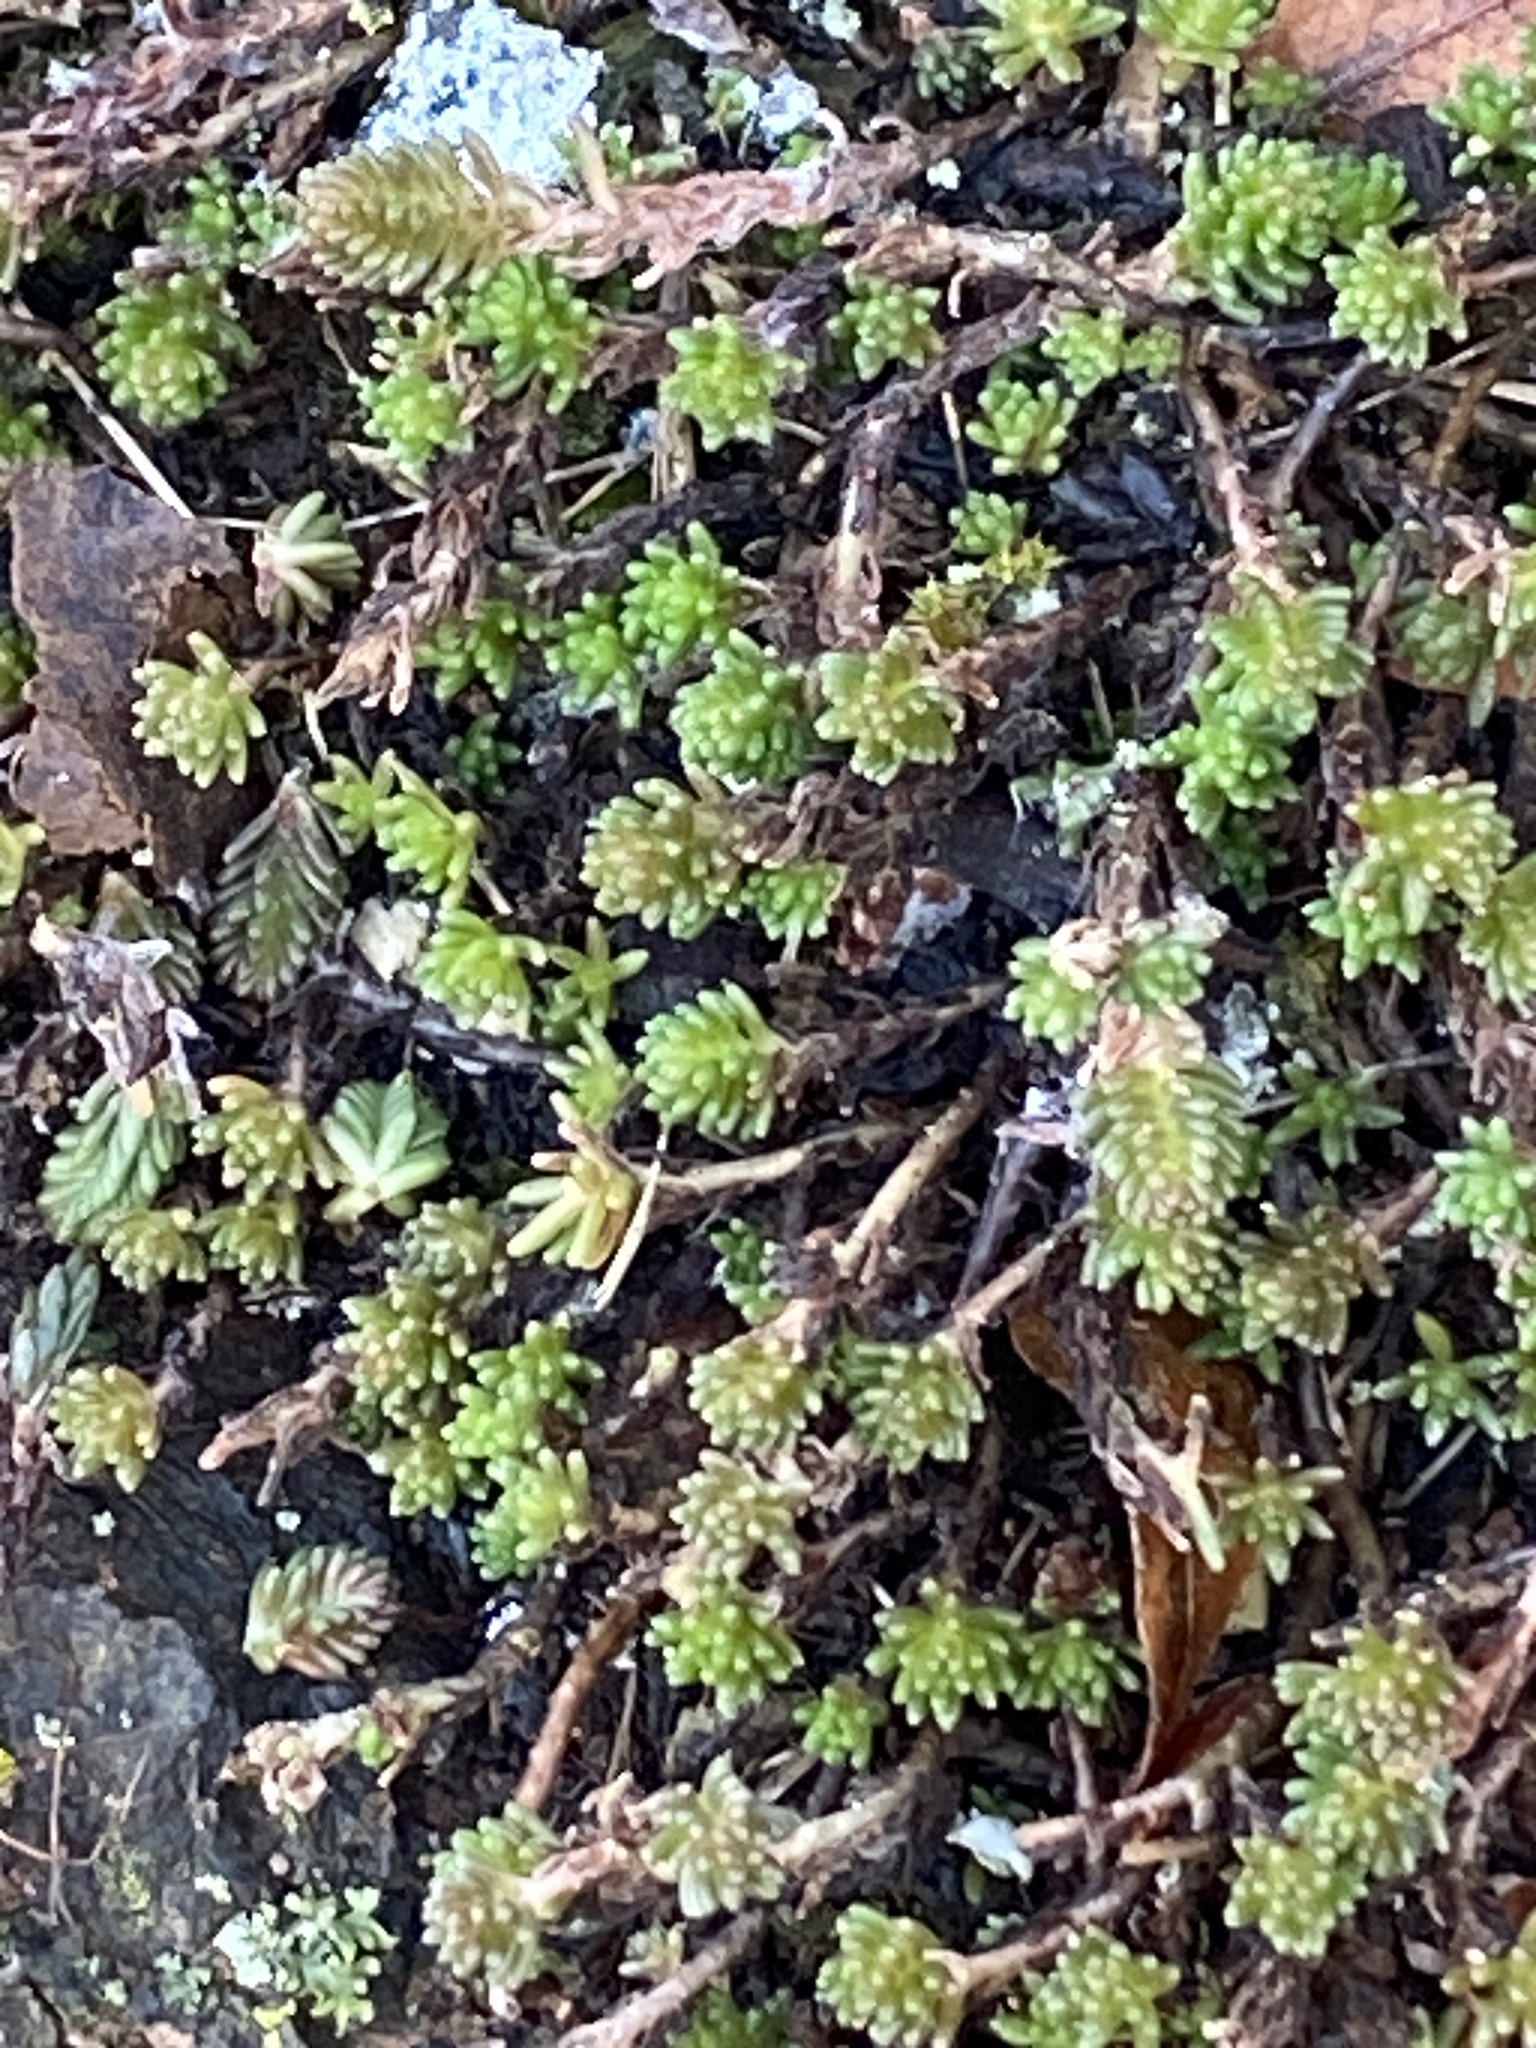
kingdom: Plantae
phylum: Tracheophyta
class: Magnoliopsida
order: Saxifragales
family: Crassulaceae
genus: Sedum
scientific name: Sedum sexangulare
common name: Tasteless stonecrop
